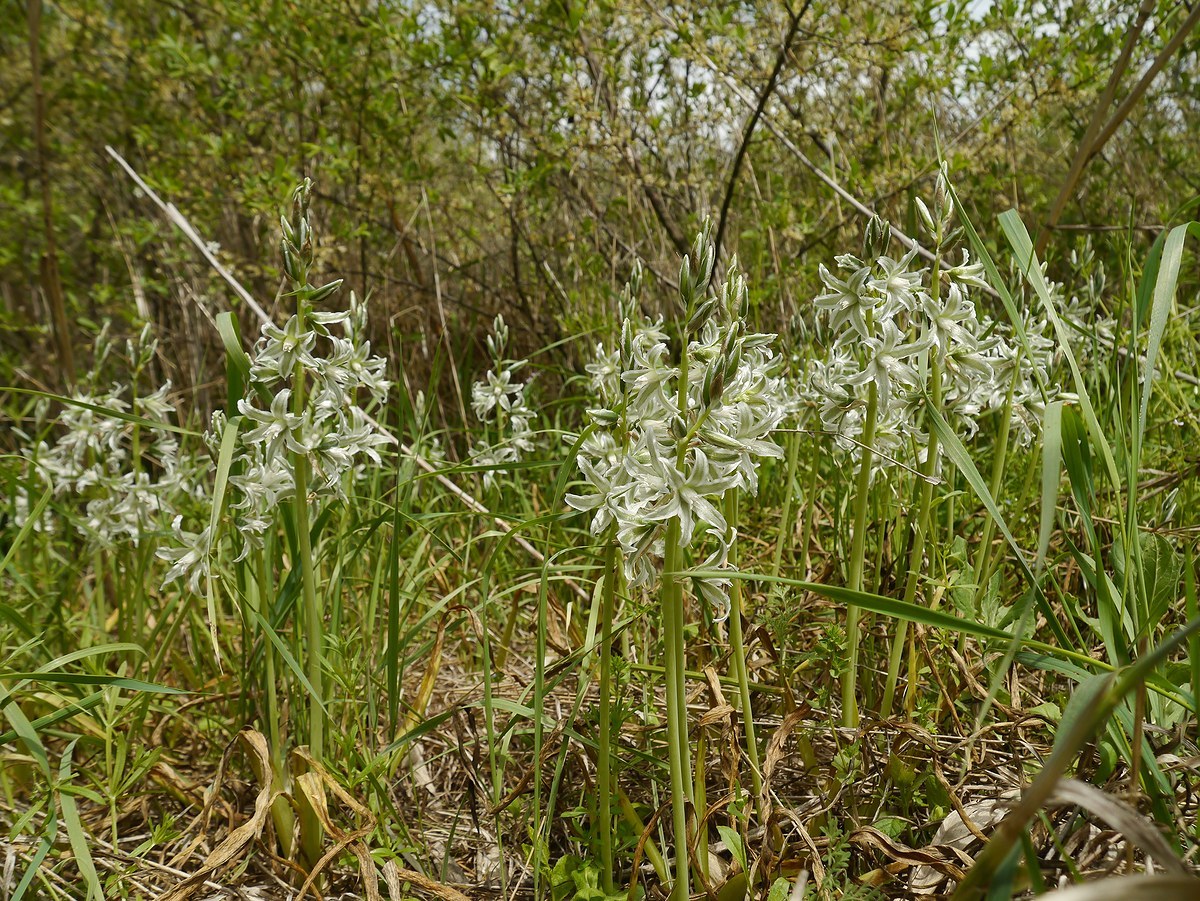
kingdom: Plantae
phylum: Tracheophyta
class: Liliopsida
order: Asparagales
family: Asparagaceae
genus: Ornithogalum
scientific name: Ornithogalum boucheanum
